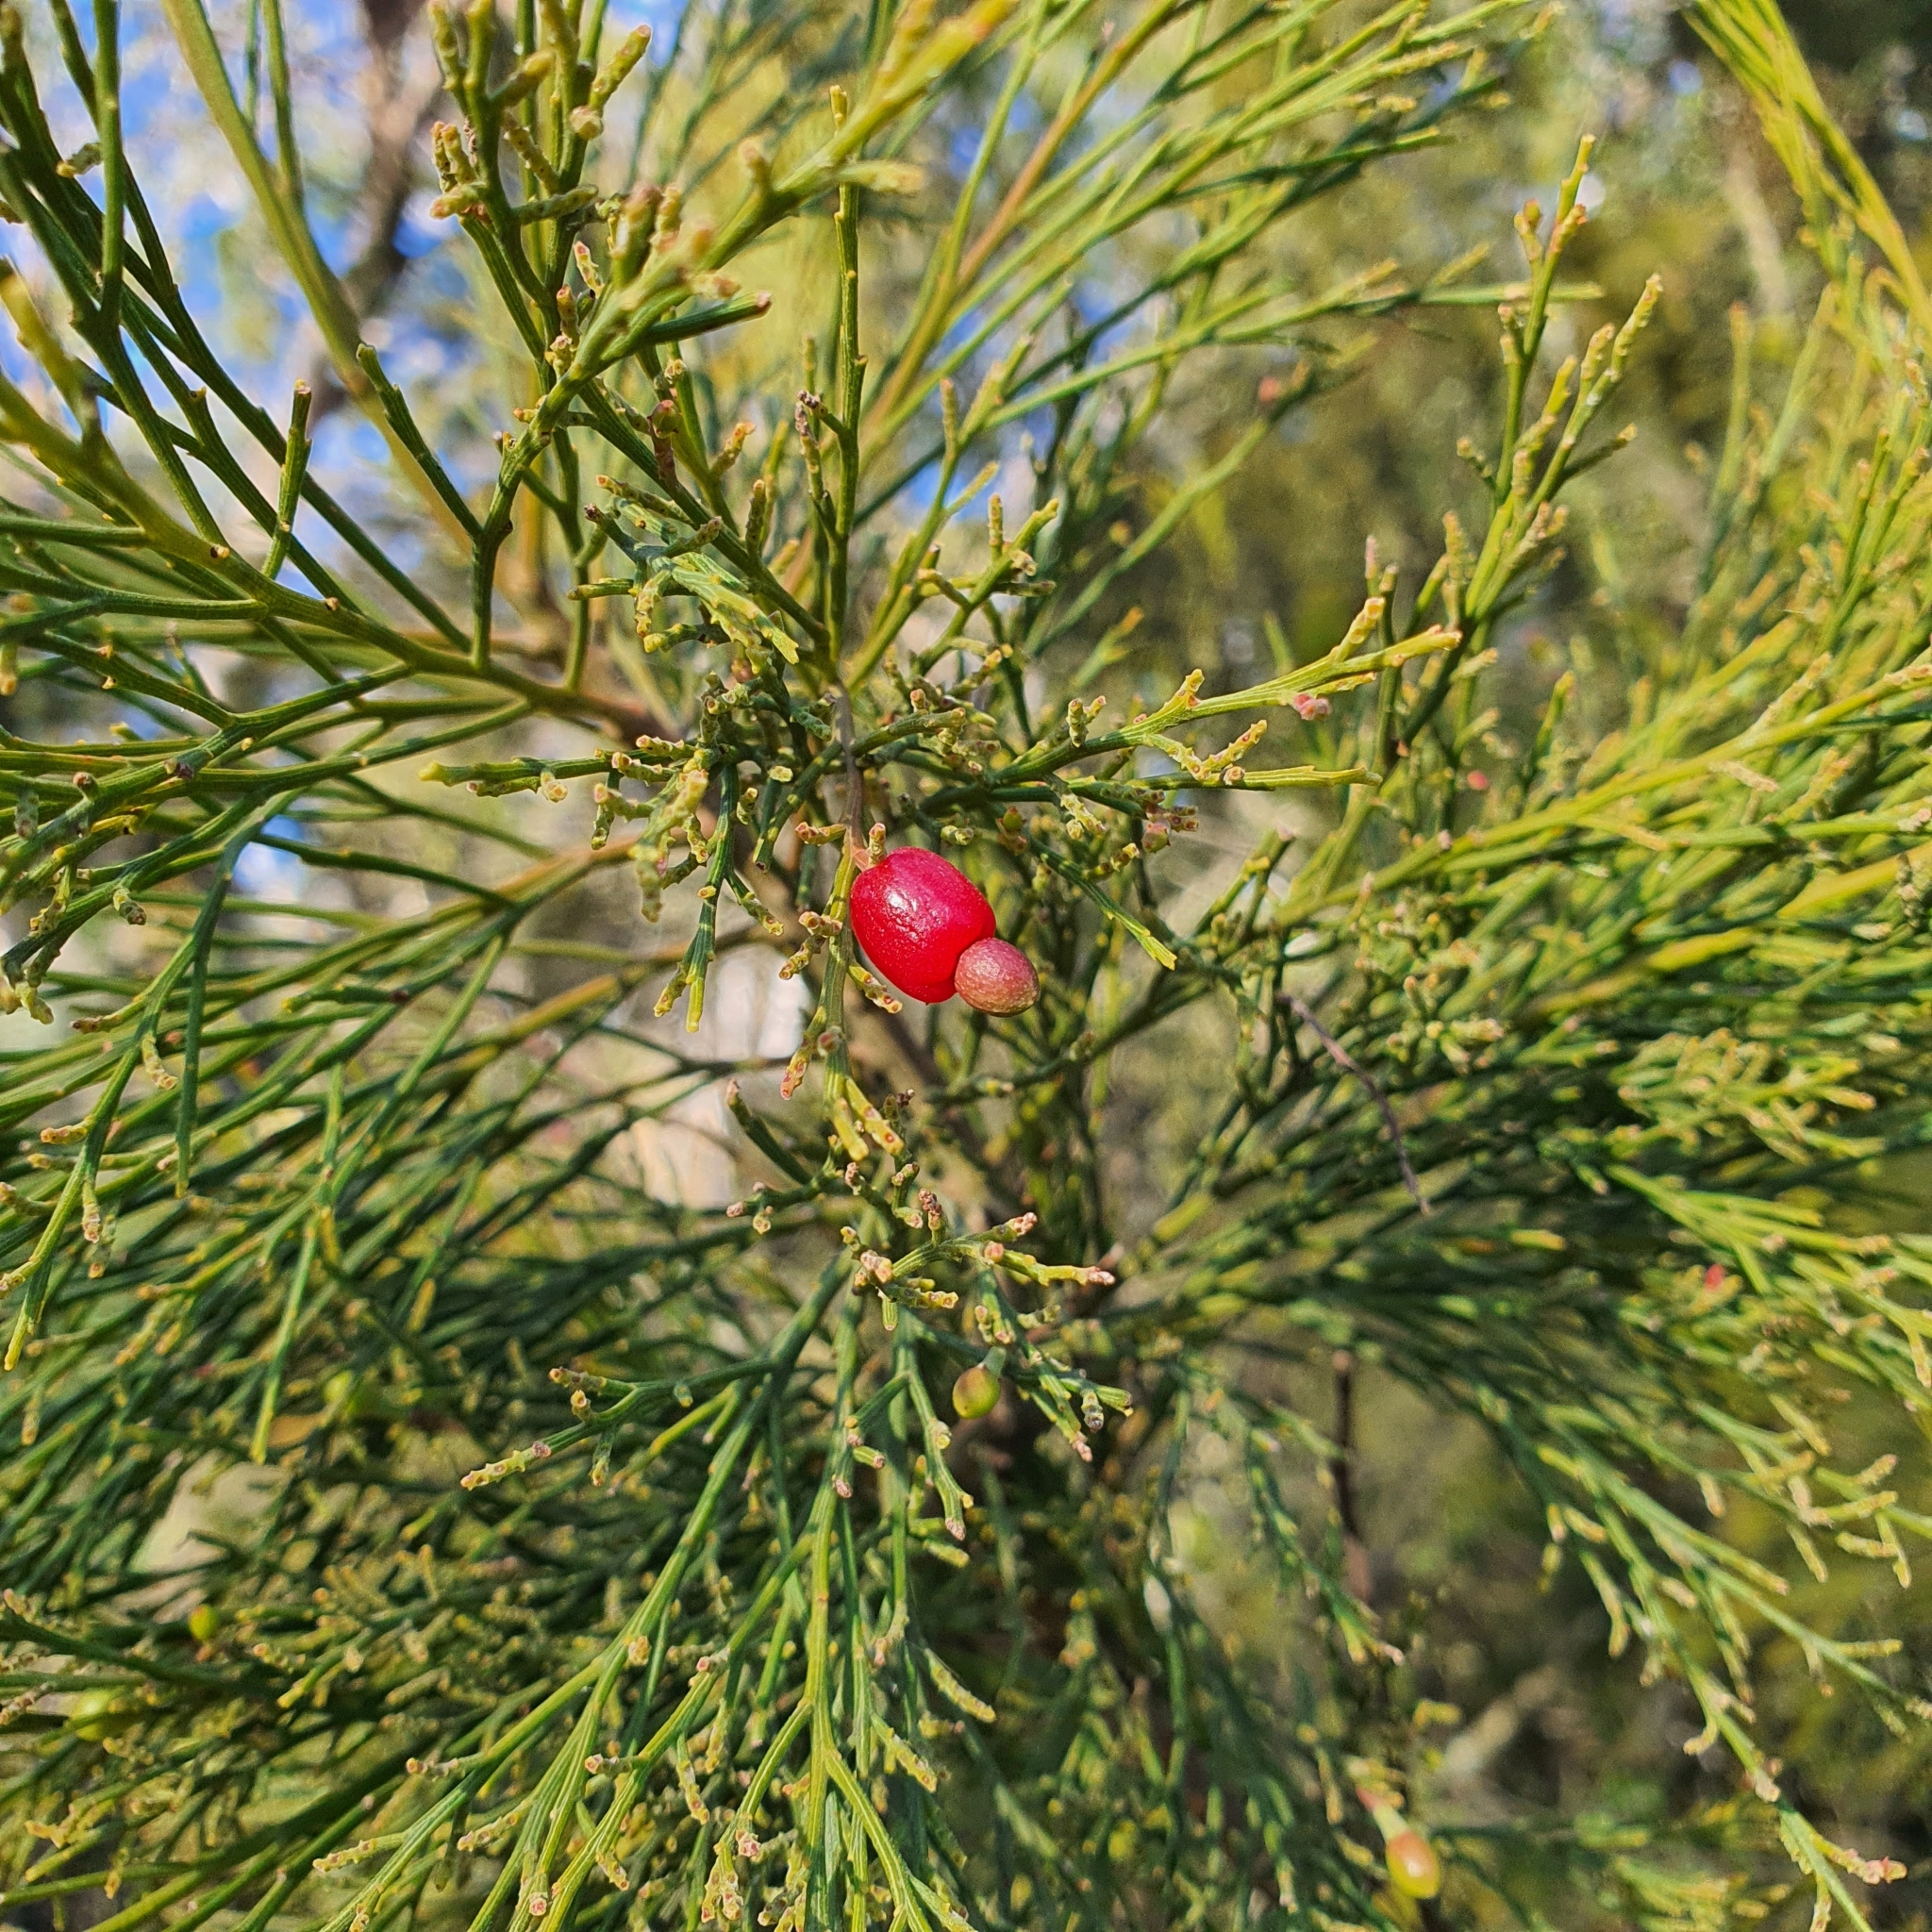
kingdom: Plantae
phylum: Tracheophyta
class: Magnoliopsida
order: Santalales
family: Santalaceae
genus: Exocarpos
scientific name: Exocarpos cupressiformis
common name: Cherry ballart
